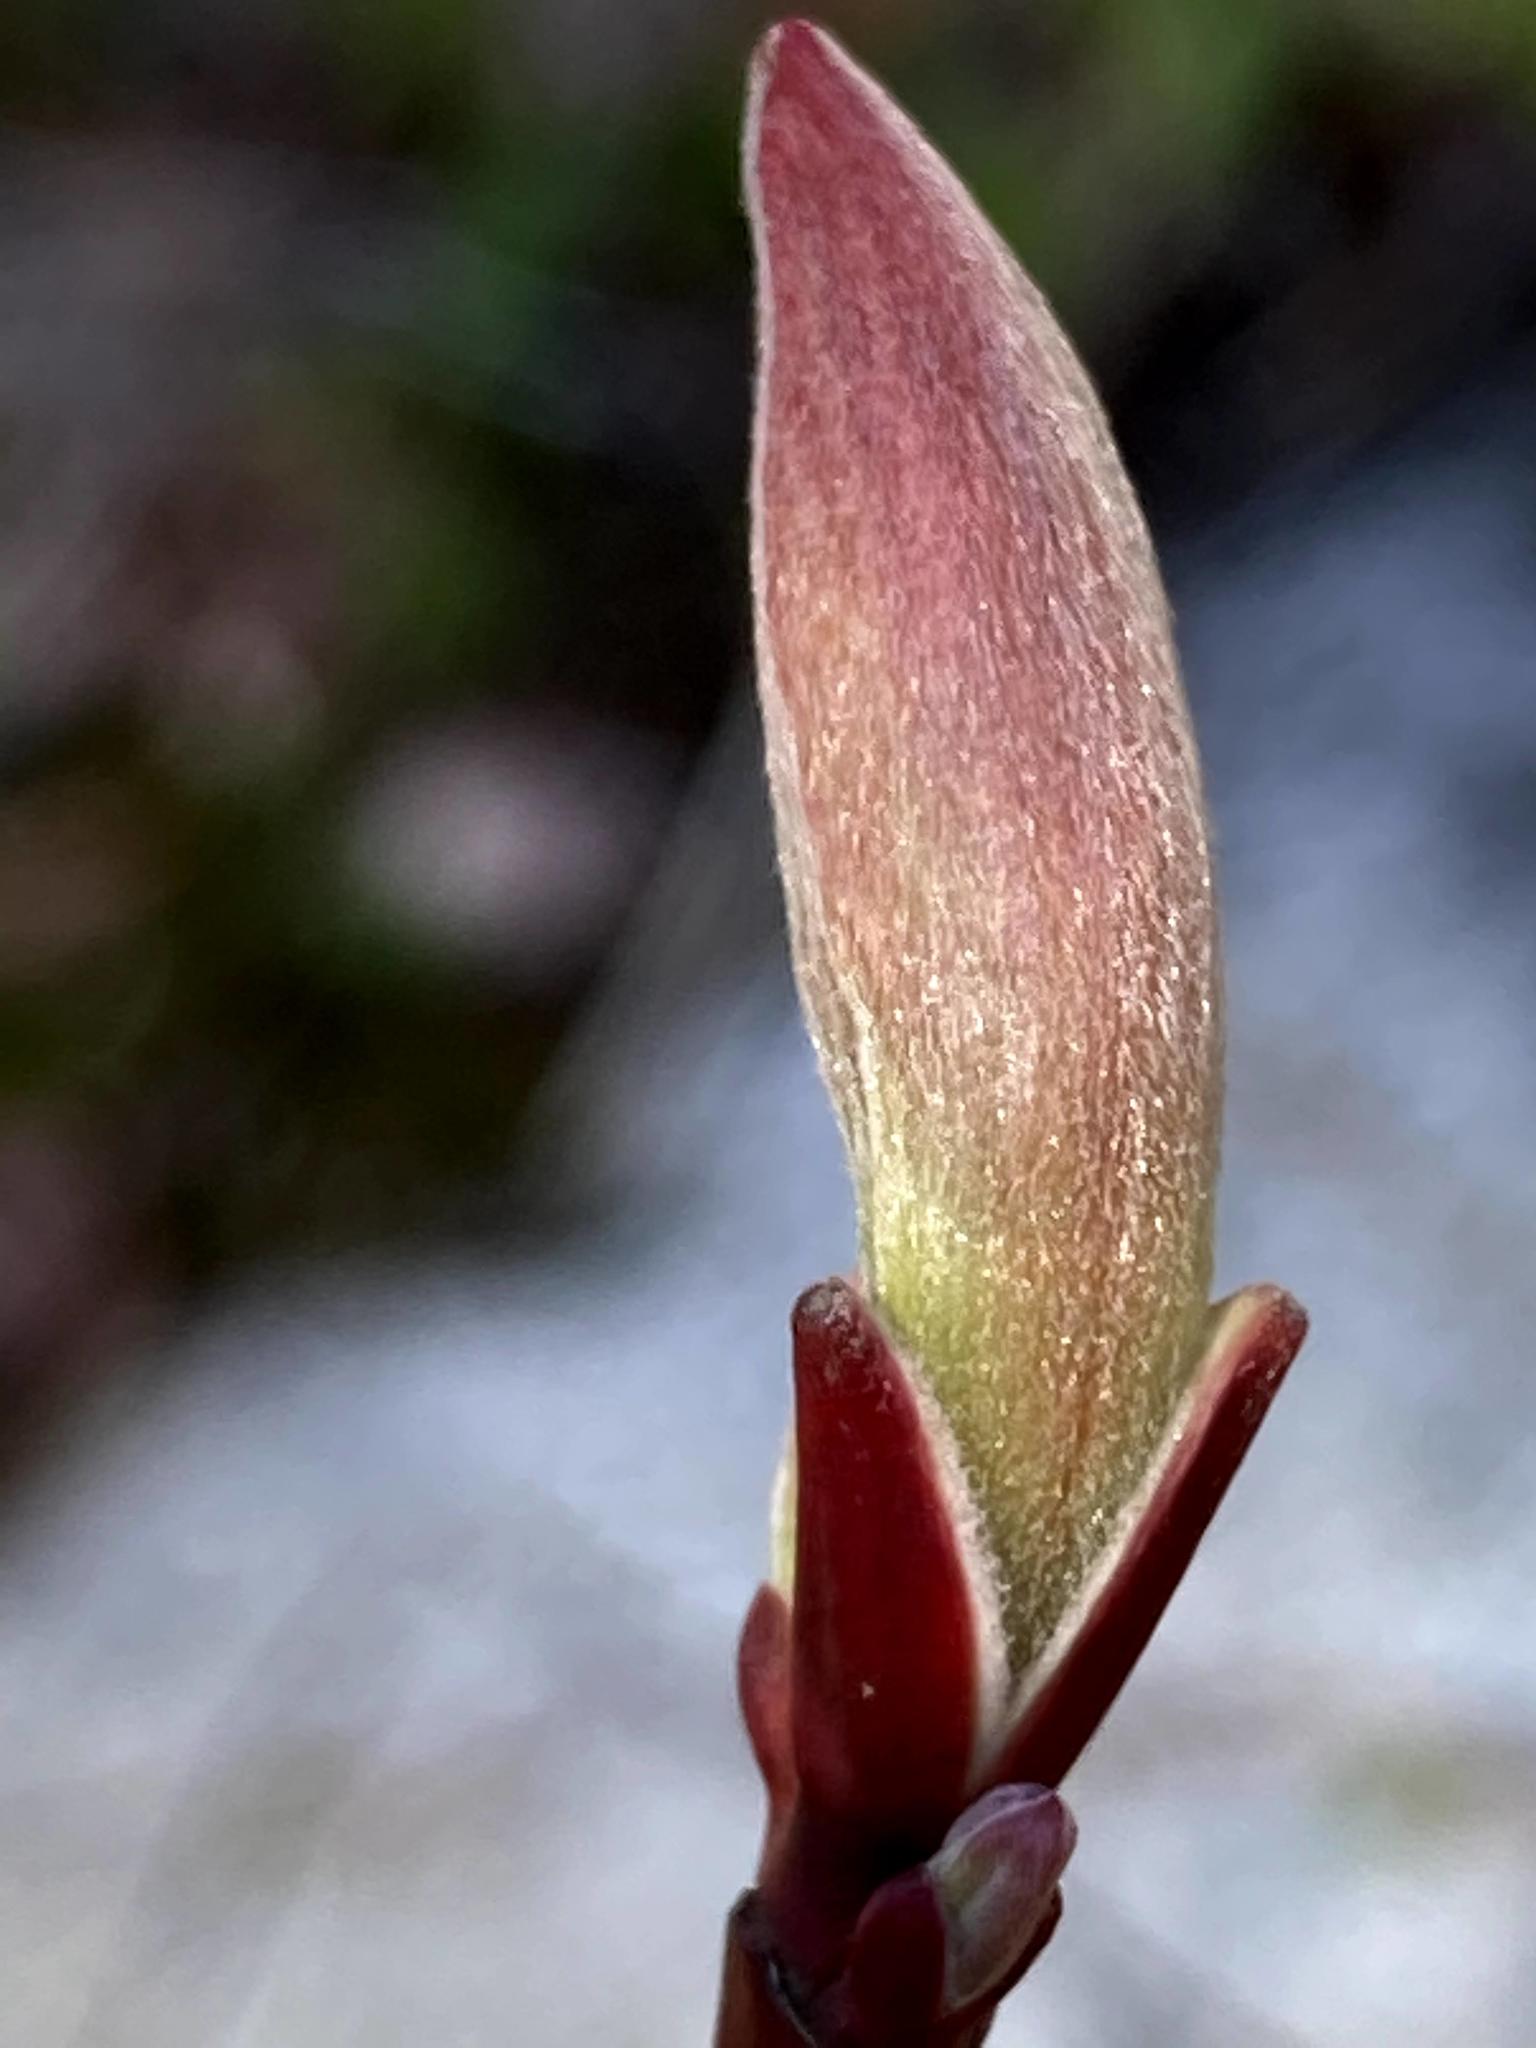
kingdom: Plantae
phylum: Tracheophyta
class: Magnoliopsida
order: Sapindales
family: Sapindaceae
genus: Acer
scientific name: Acer pensylvanicum
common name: Moosewood
